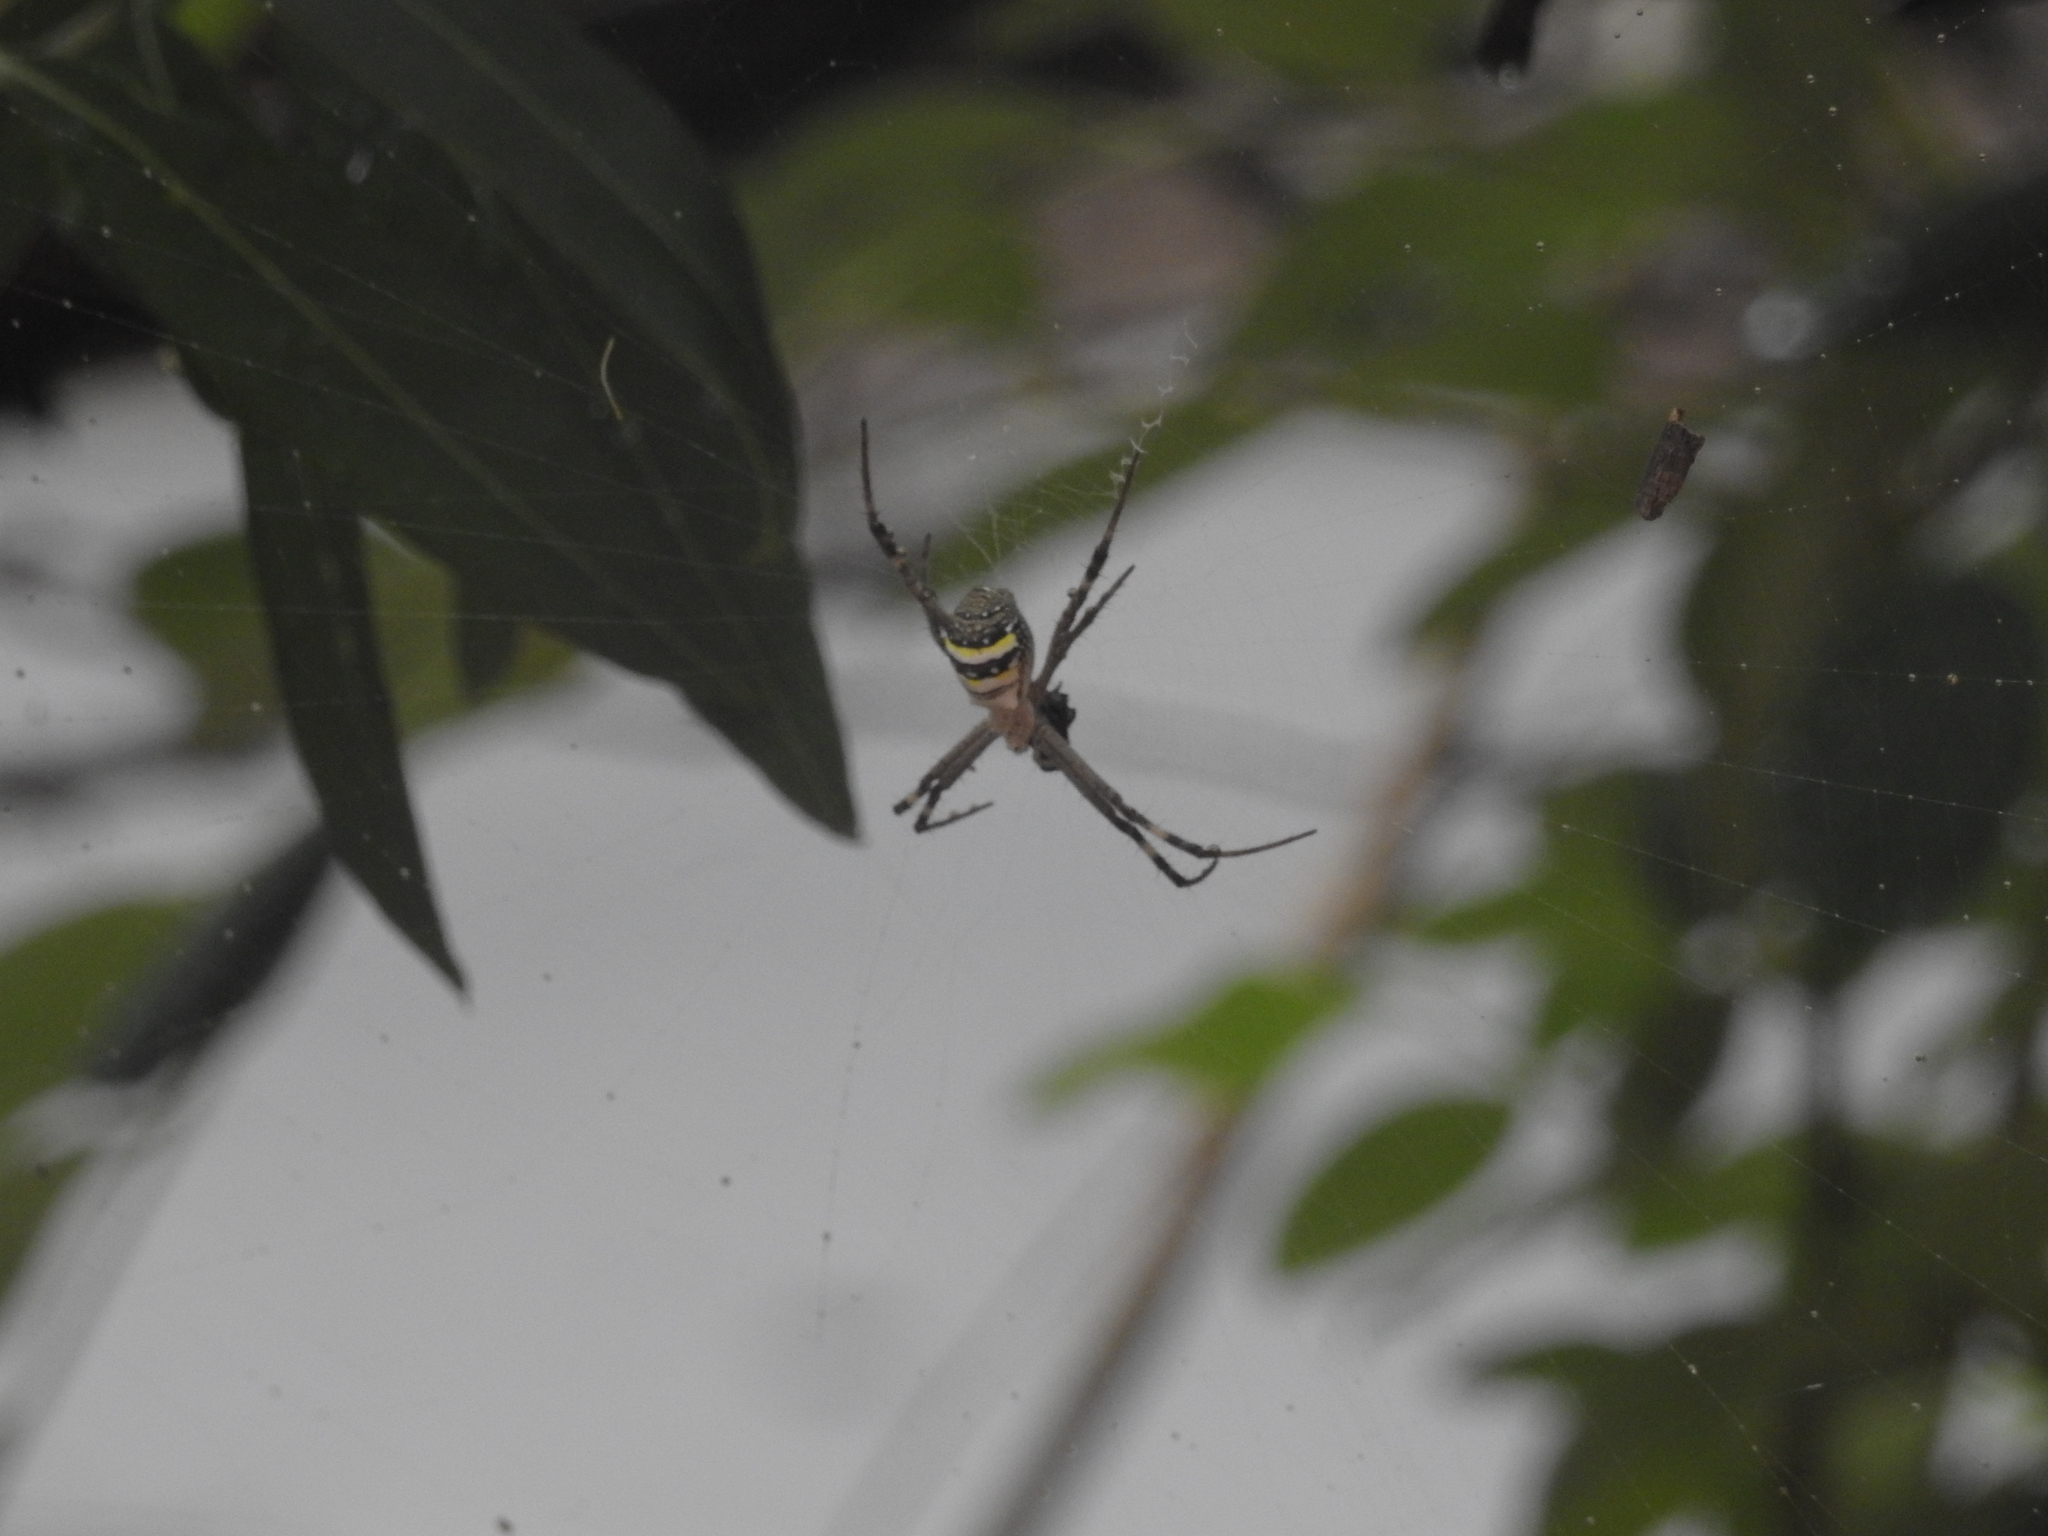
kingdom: Animalia
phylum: Arthropoda
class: Arachnida
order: Araneae
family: Araneidae
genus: Argiope
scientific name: Argiope keyserlingi
